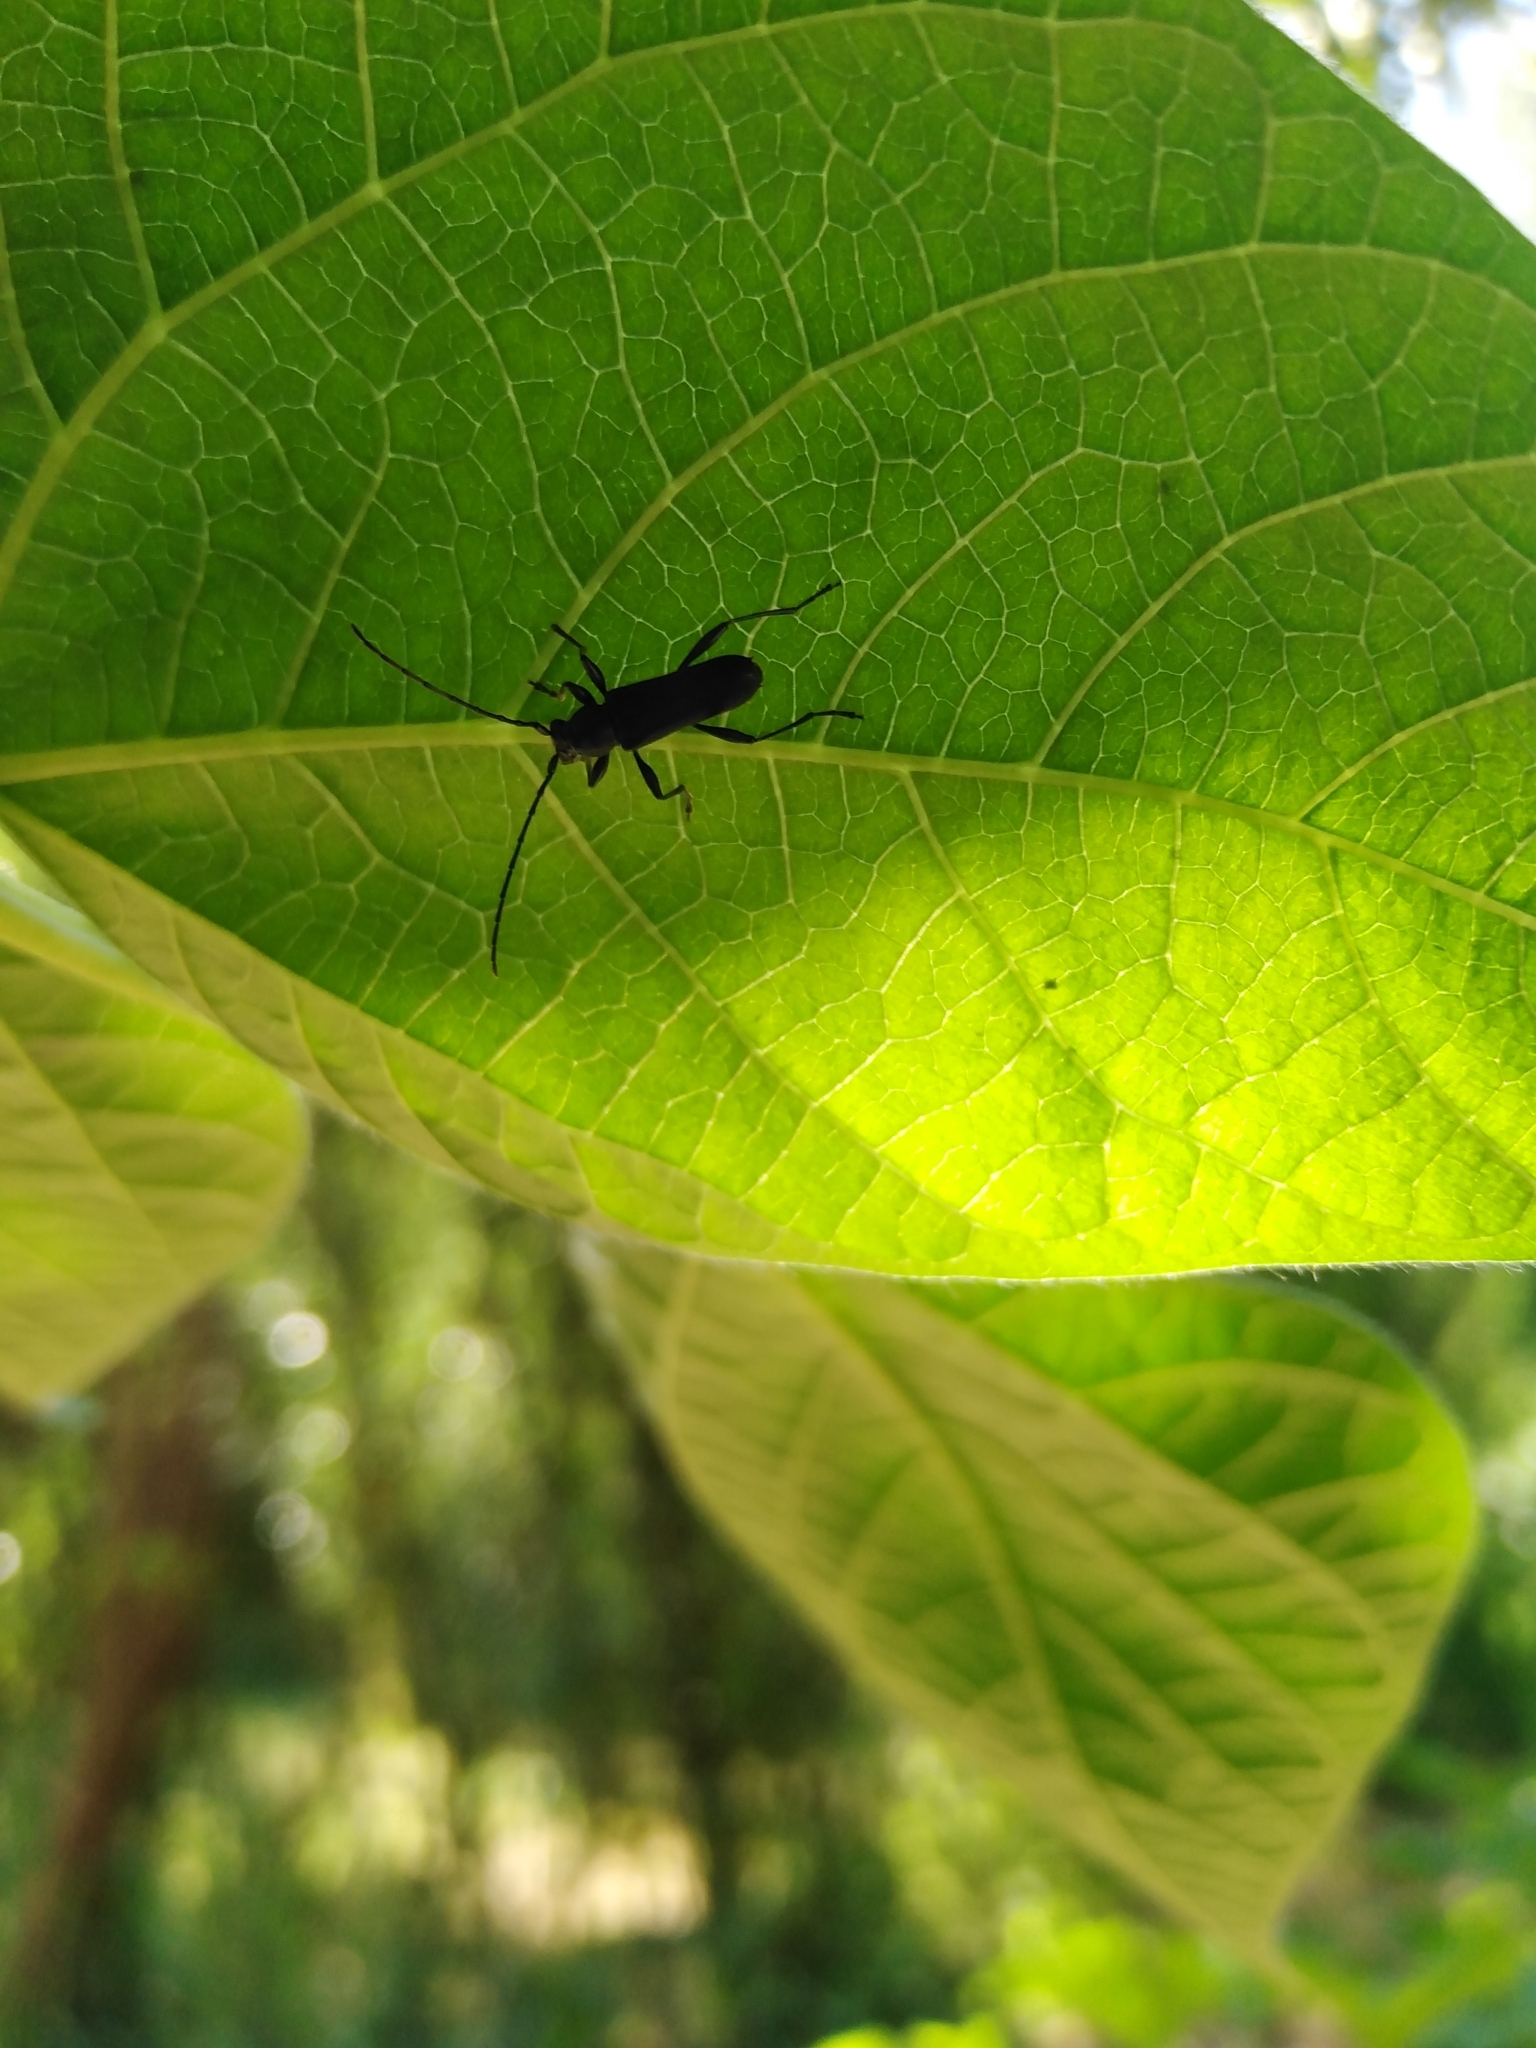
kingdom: Animalia
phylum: Arthropoda
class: Insecta
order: Coleoptera
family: Cerambycidae
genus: Eryphus
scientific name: Eryphus laetus
